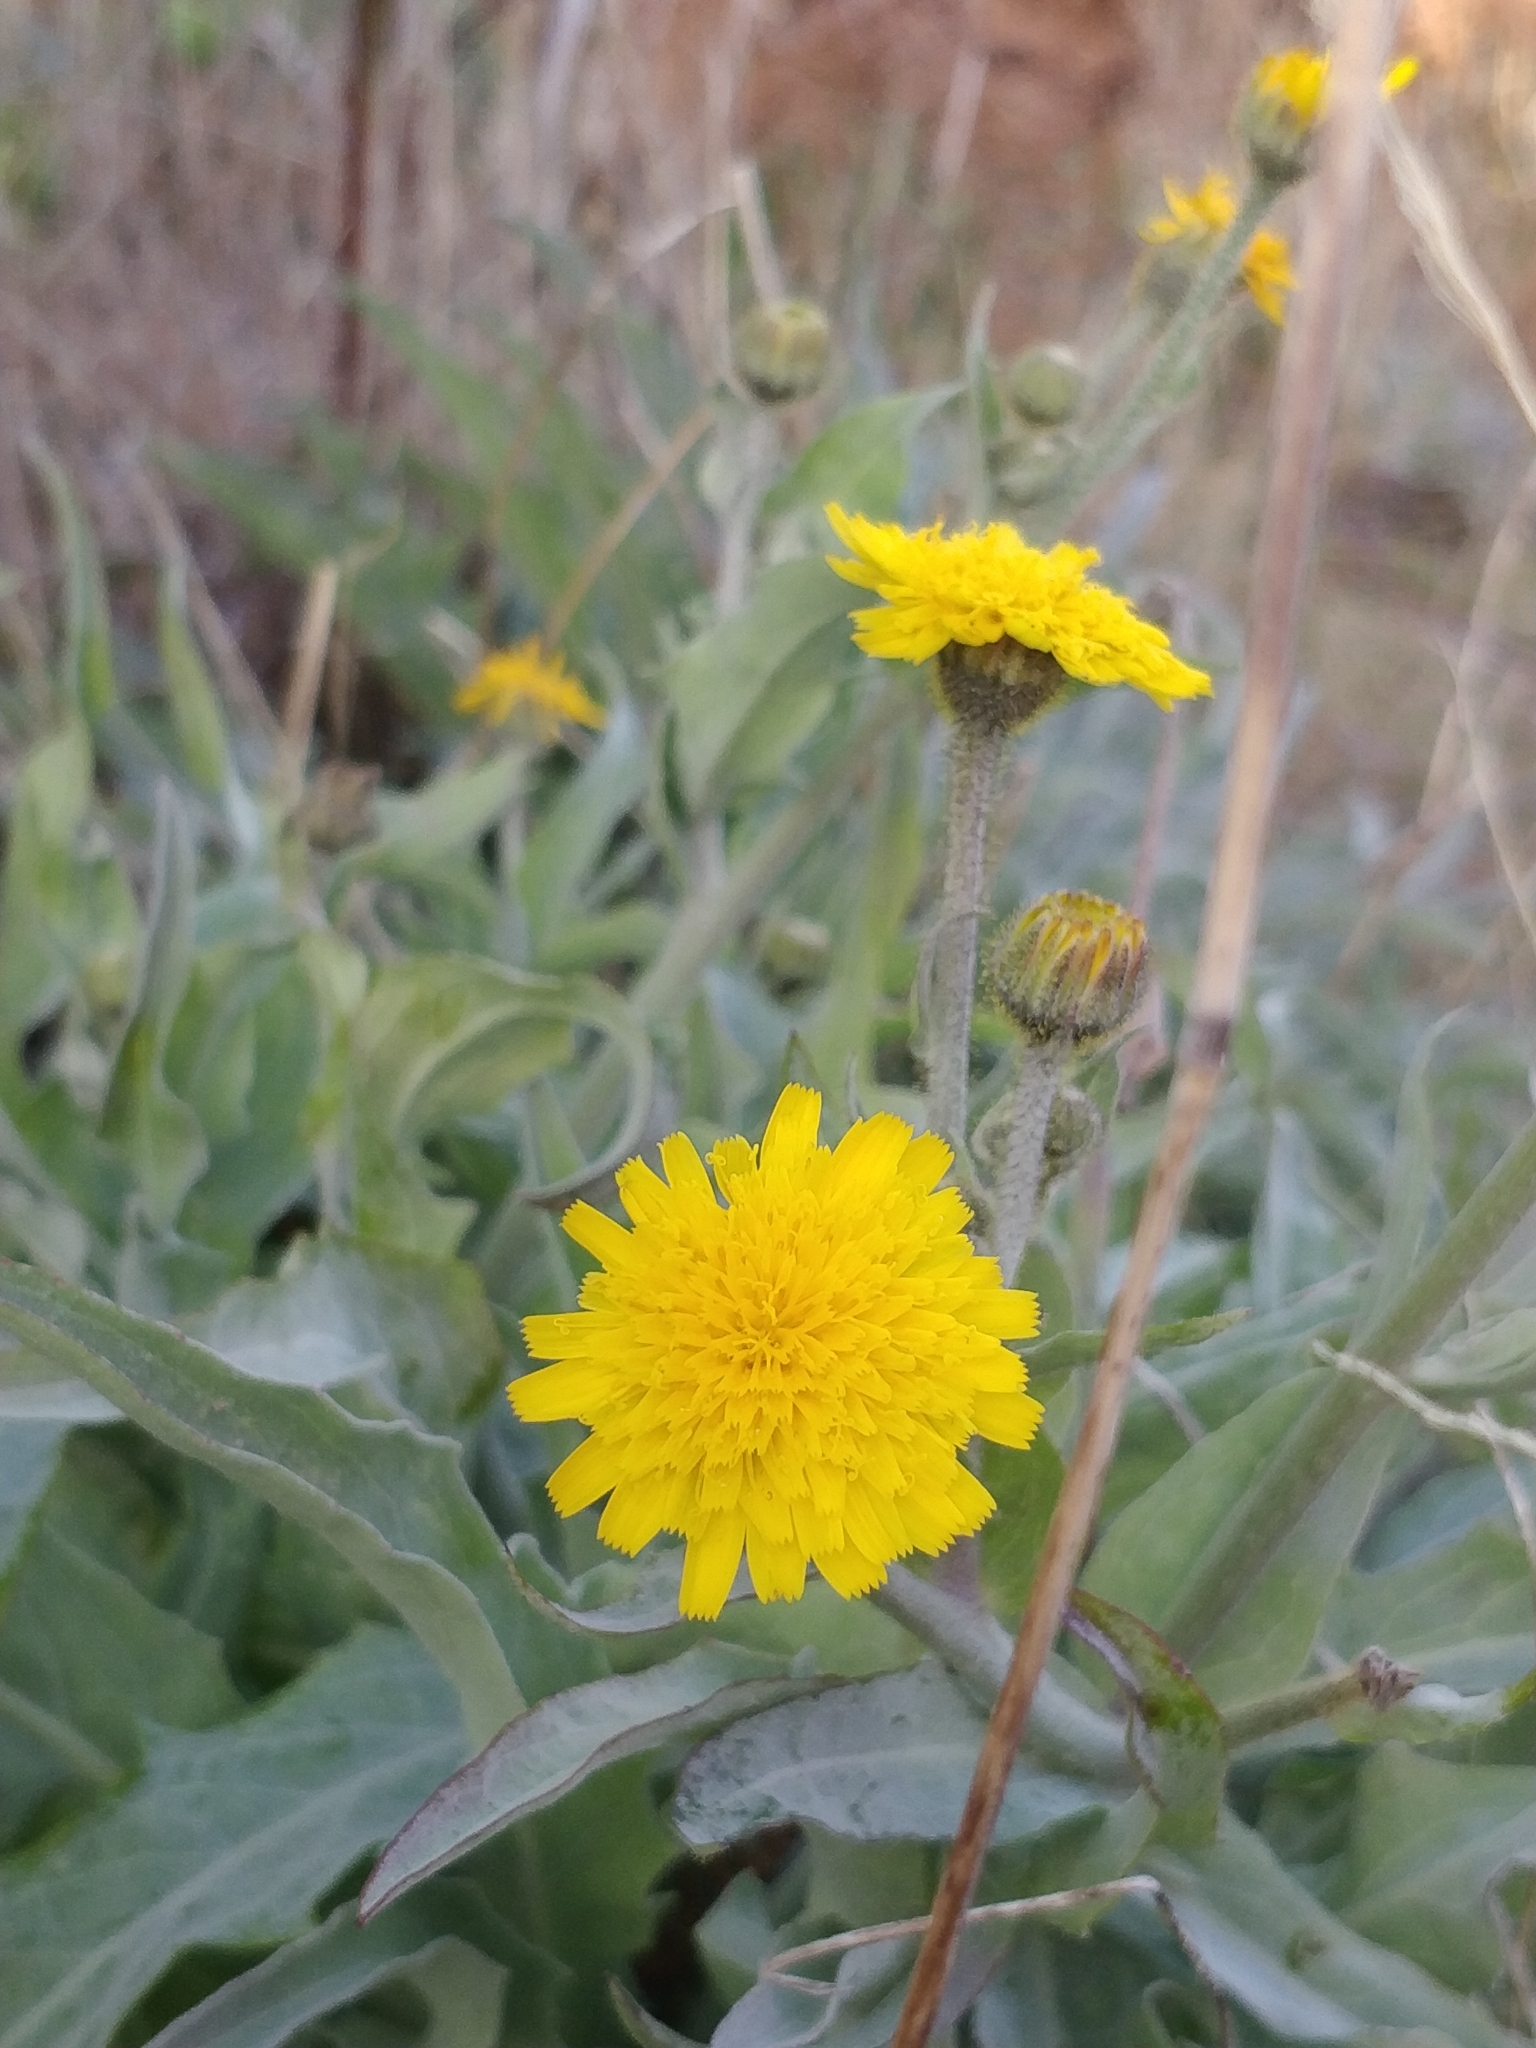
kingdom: Plantae
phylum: Tracheophyta
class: Magnoliopsida
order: Asterales
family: Asteraceae
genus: Andryala
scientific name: Andryala glandulosa
